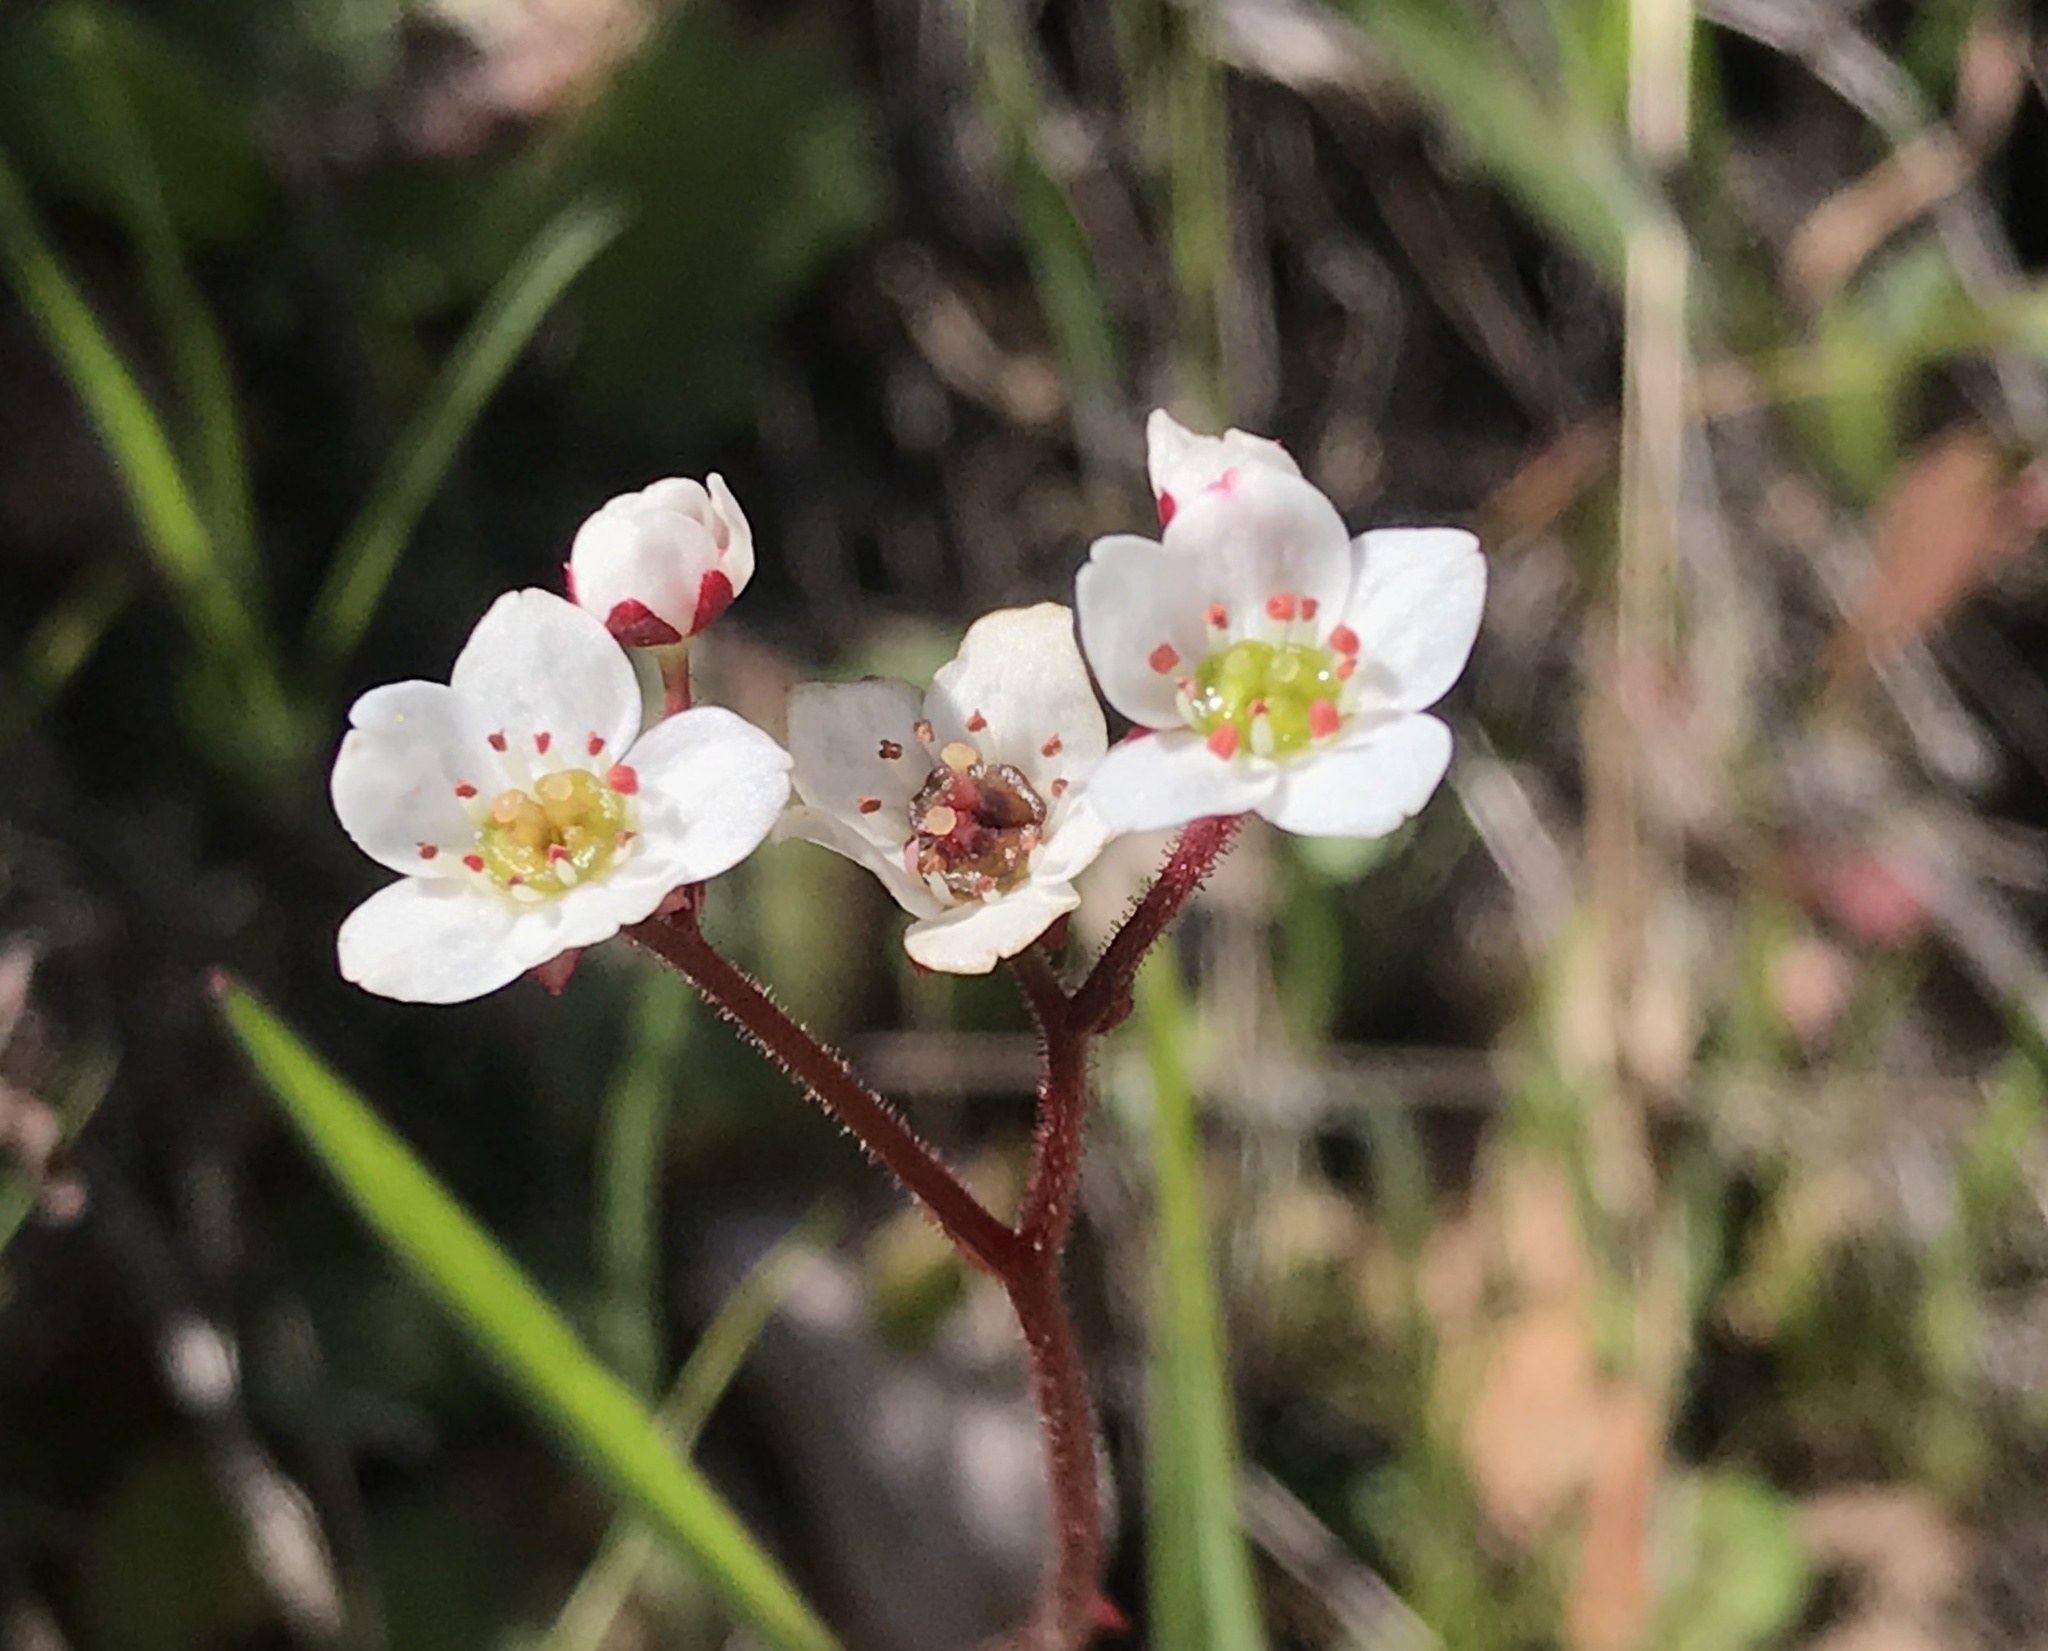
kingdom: Plantae
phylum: Tracheophyta
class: Magnoliopsida
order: Saxifragales
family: Saxifragaceae
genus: Micranthes
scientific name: Micranthes californica
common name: California saxifrage
